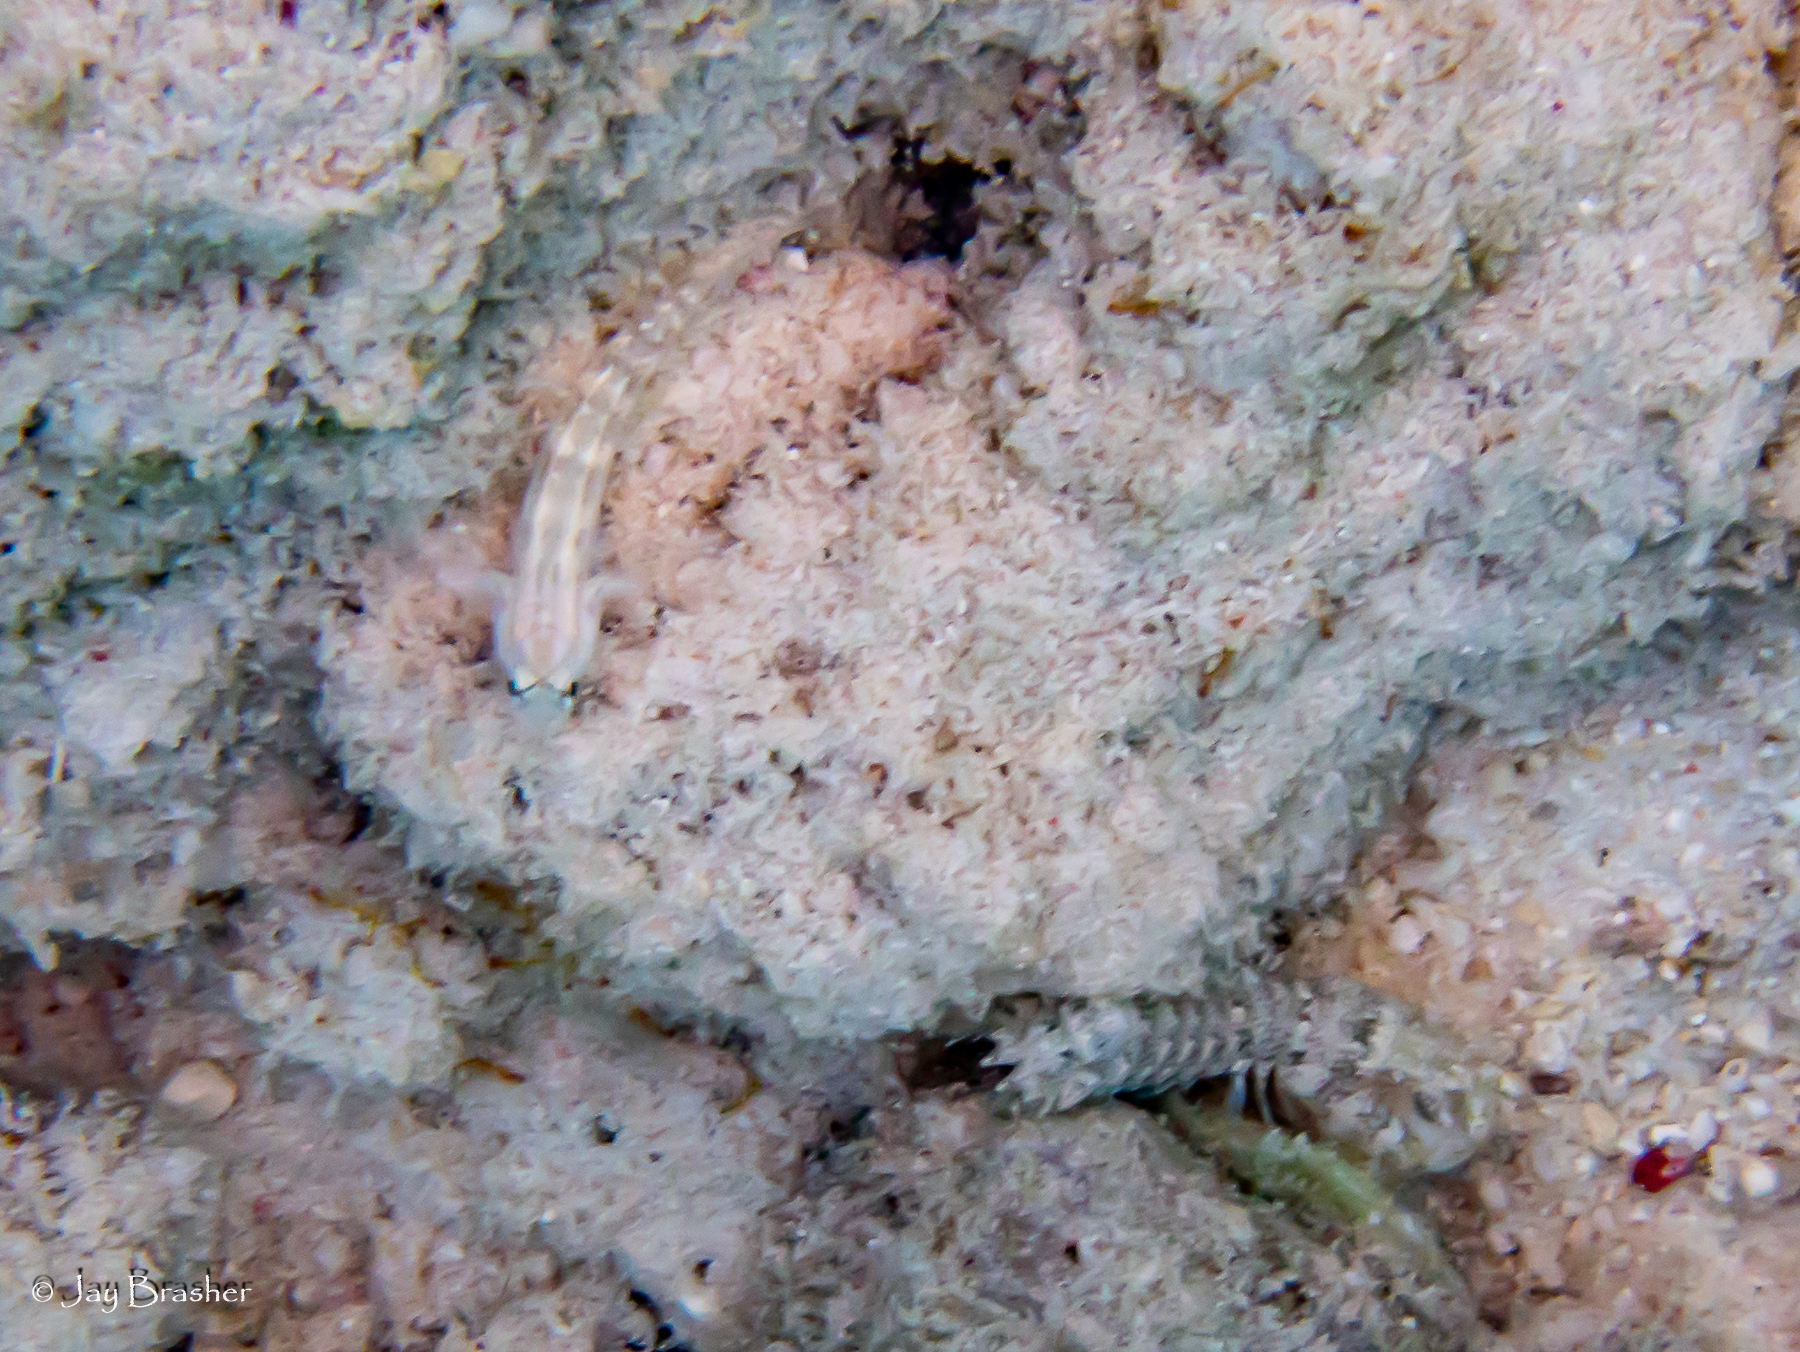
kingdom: Animalia
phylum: Arthropoda
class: Malacostraca
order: Stomatopoda
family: Gonodactylidae
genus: Neogonodactylus
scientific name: Neogonodactylus oerstedii
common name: Swollen-claw squilla
